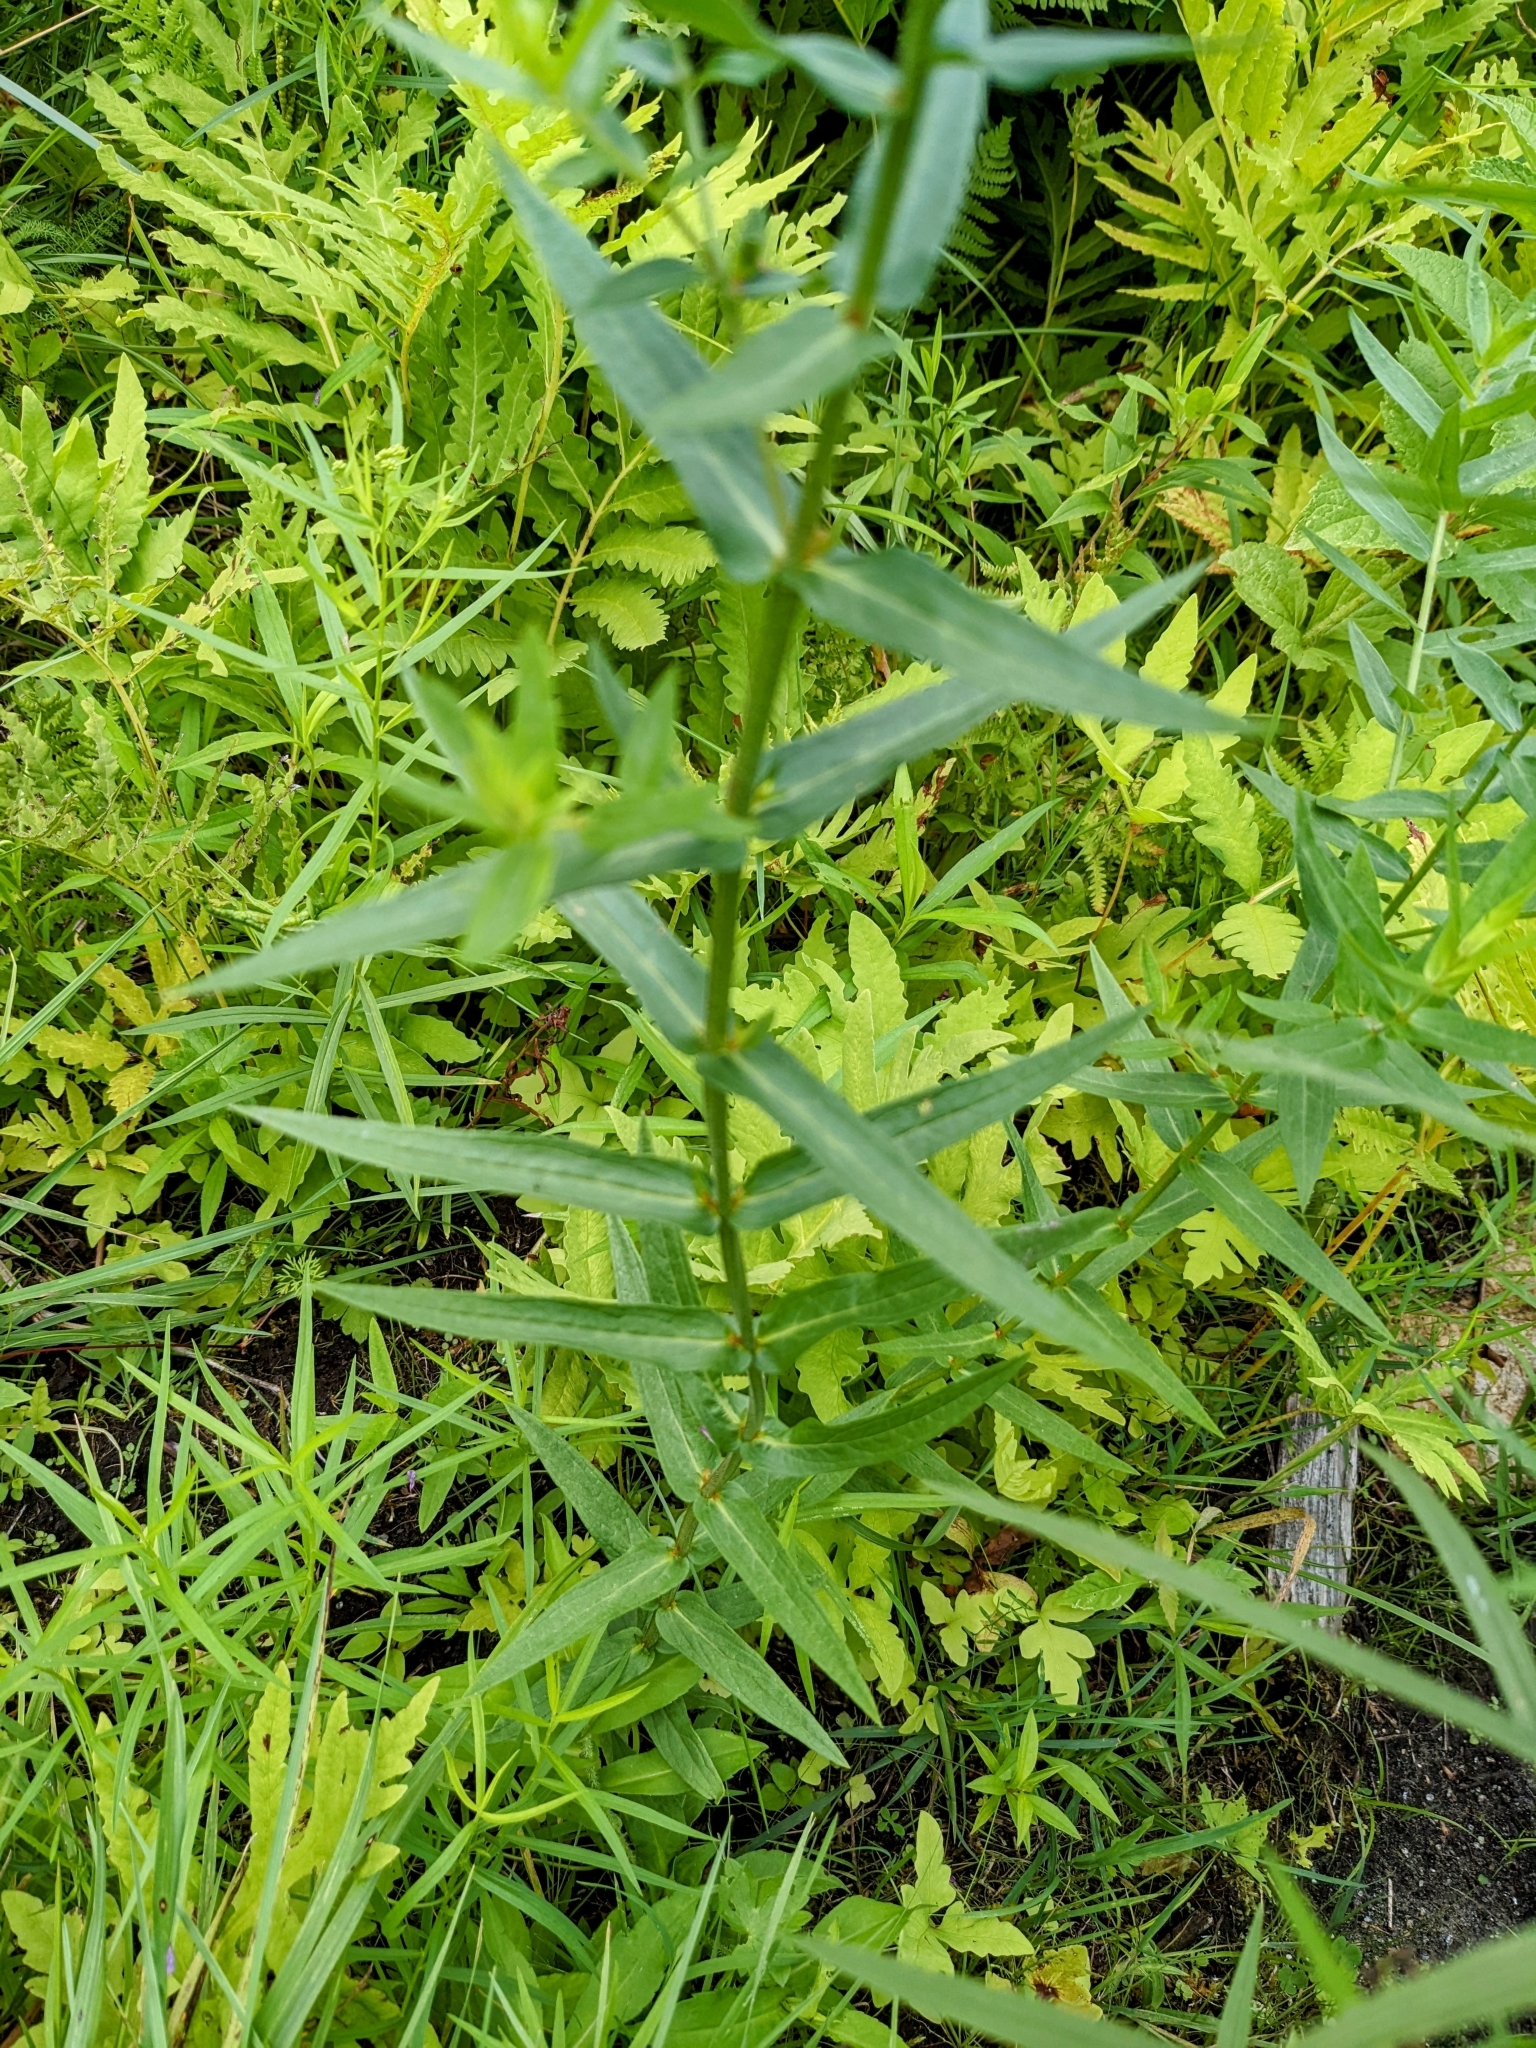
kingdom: Plantae
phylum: Tracheophyta
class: Magnoliopsida
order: Myrtales
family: Lythraceae
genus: Lythrum
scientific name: Lythrum salicaria
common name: Purple loosestrife
